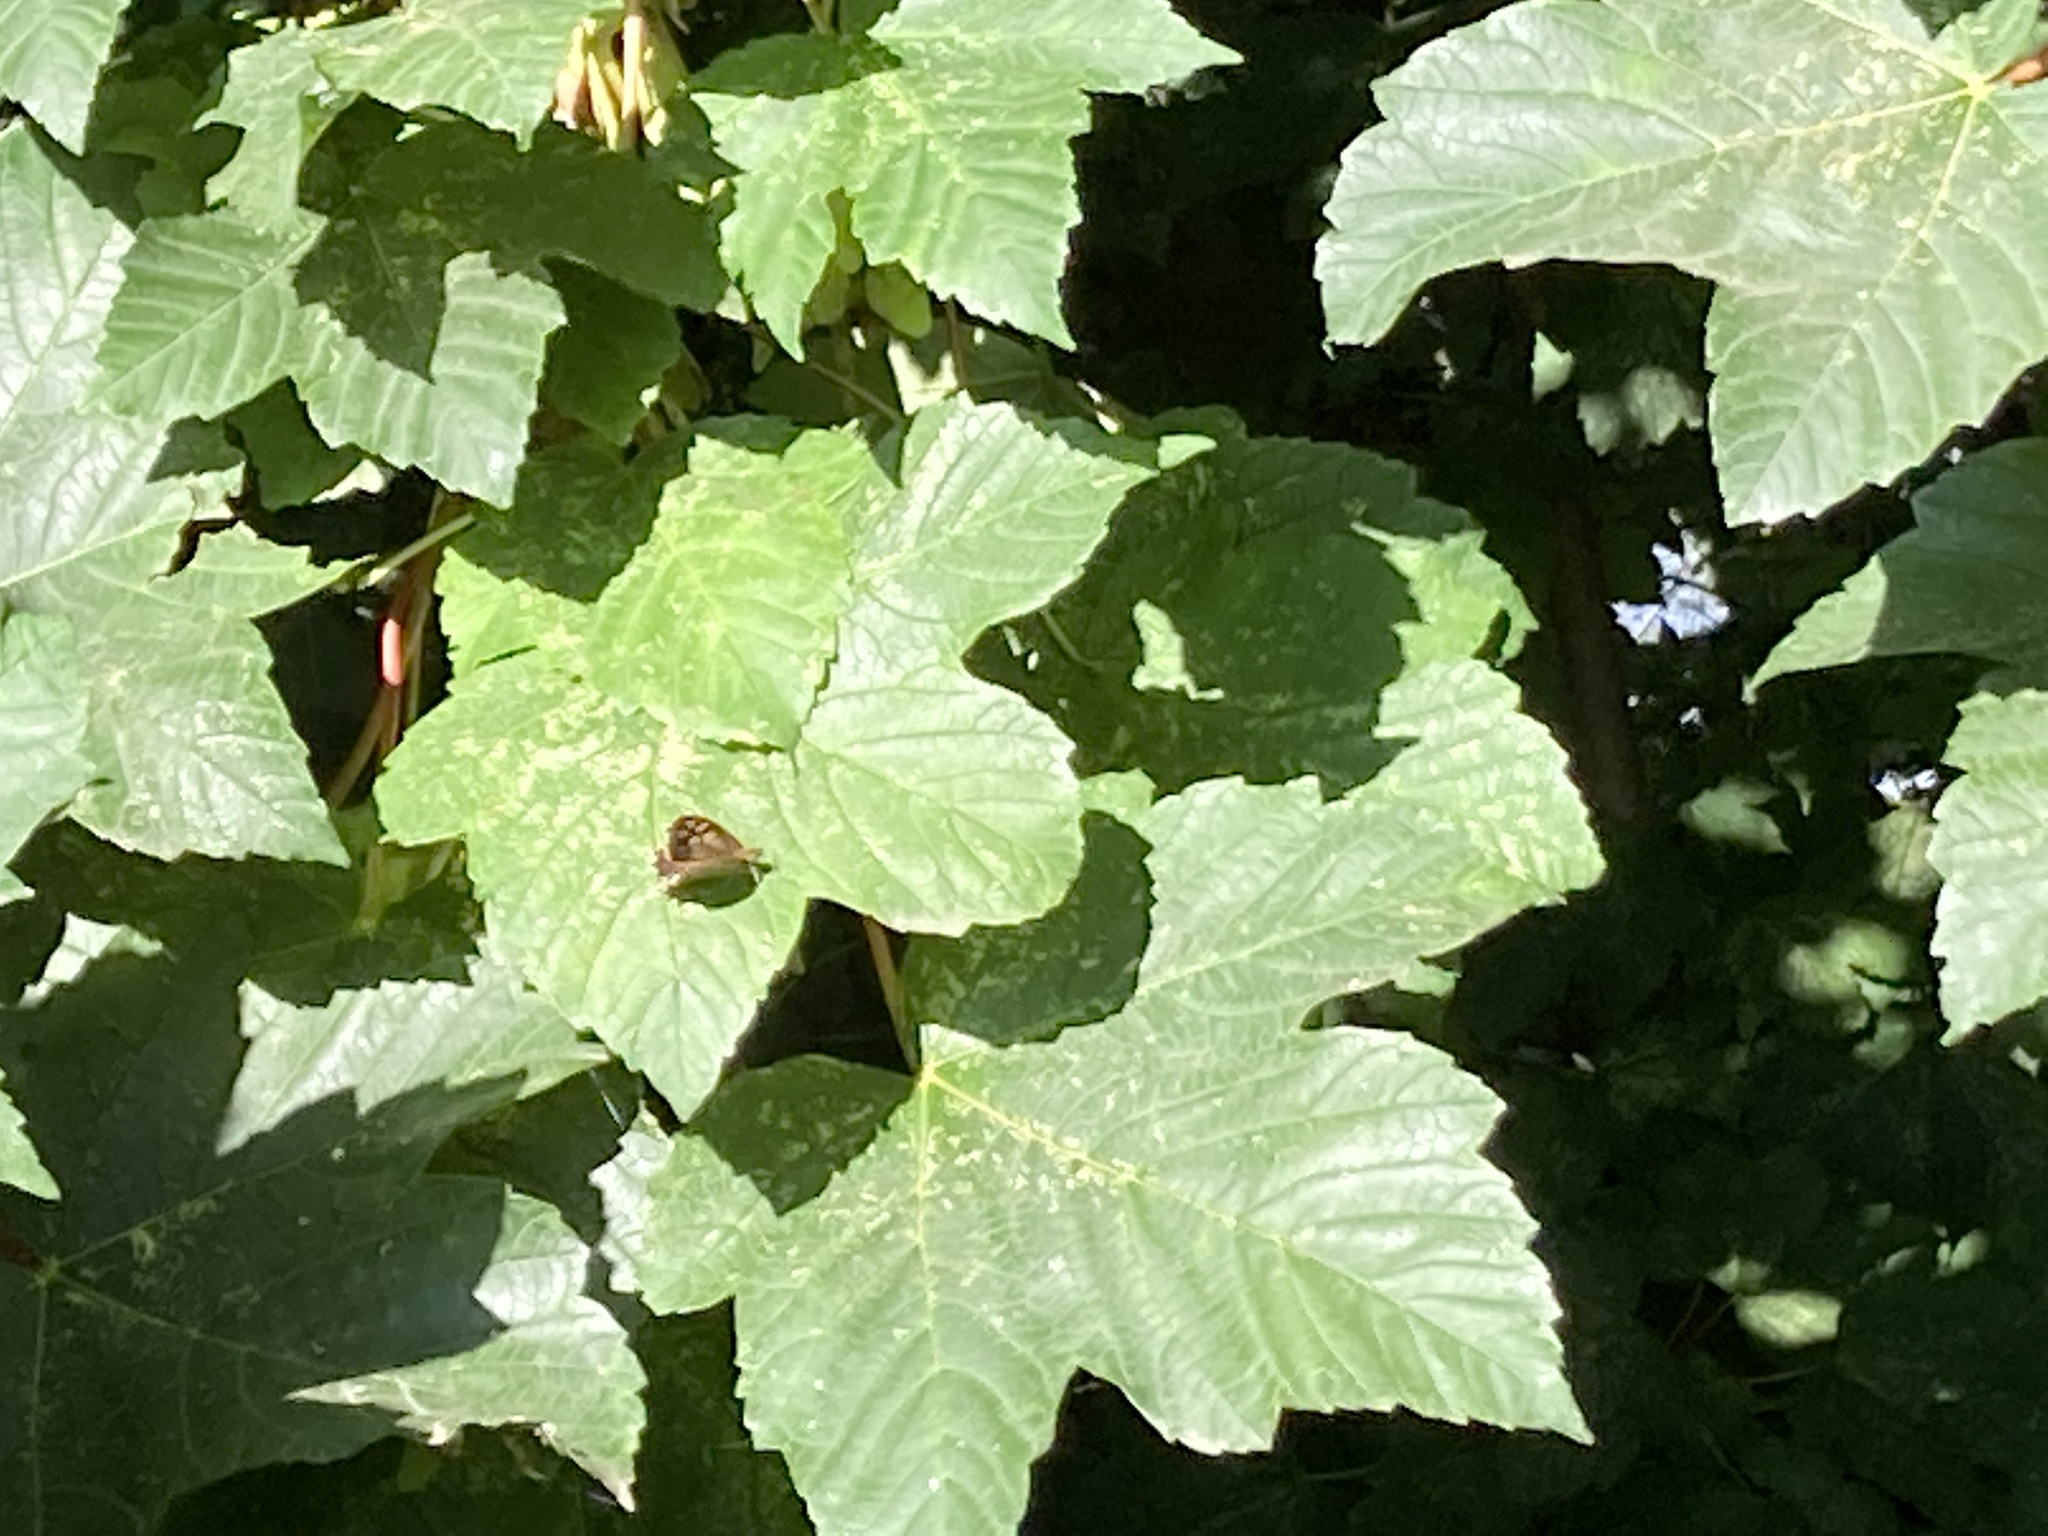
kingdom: Animalia
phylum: Arthropoda
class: Insecta
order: Lepidoptera
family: Nymphalidae
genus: Pararge
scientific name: Pararge aegeria
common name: Speckled wood
